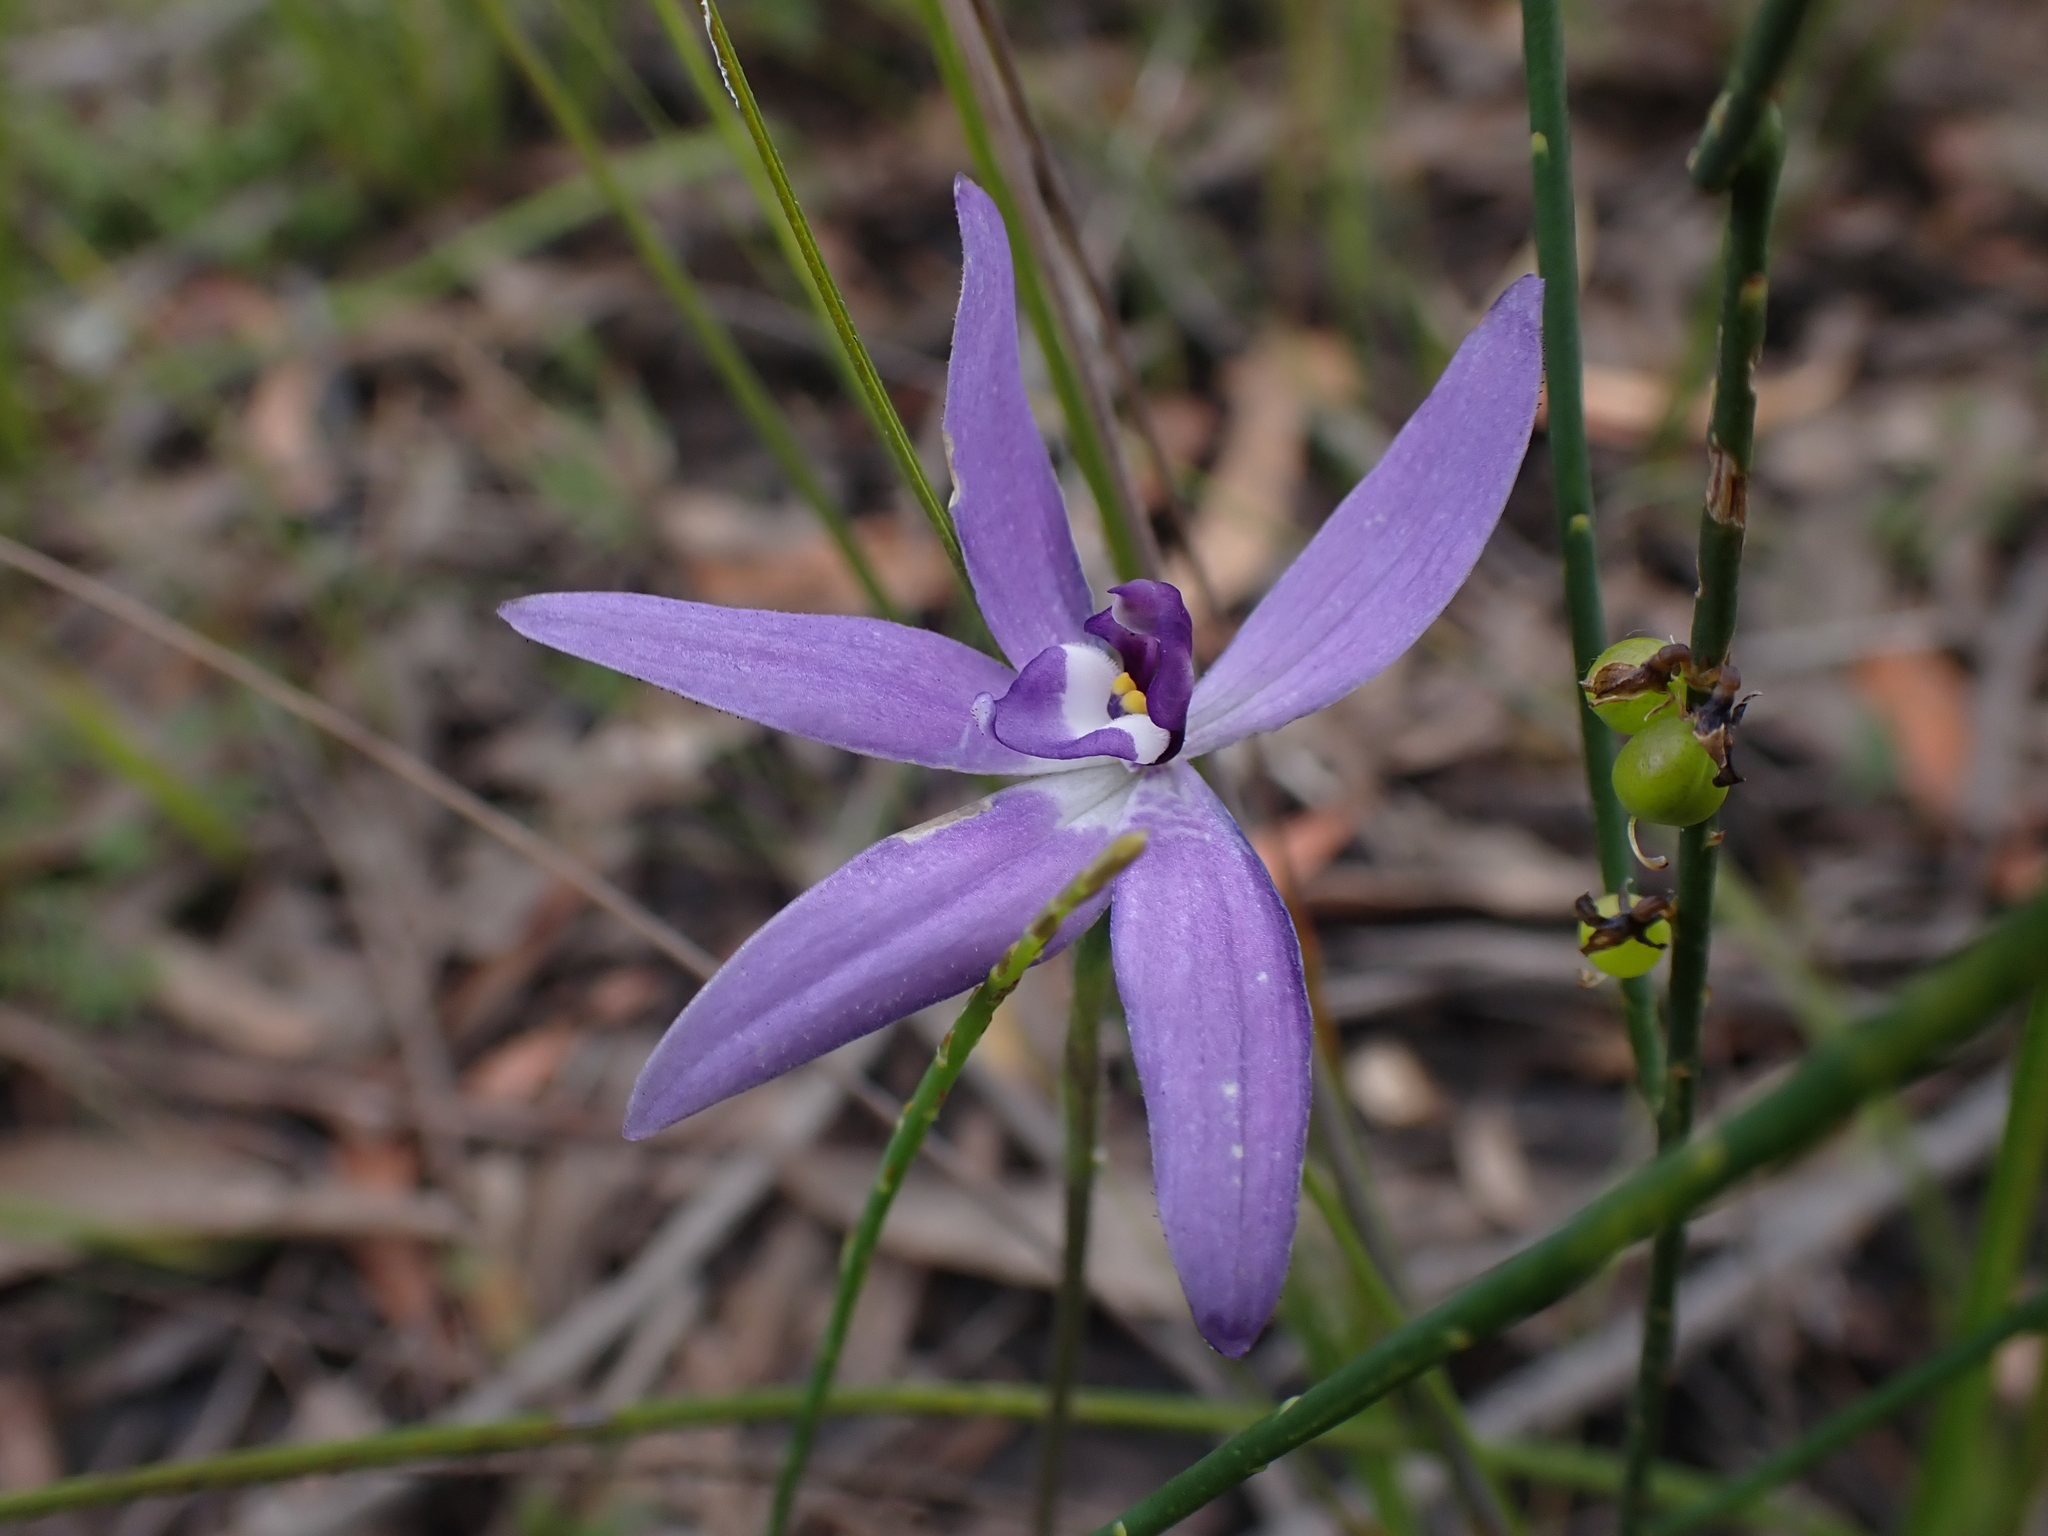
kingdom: Plantae
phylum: Tracheophyta
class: Liliopsida
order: Asparagales
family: Orchidaceae
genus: Caladenia
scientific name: Caladenia major
